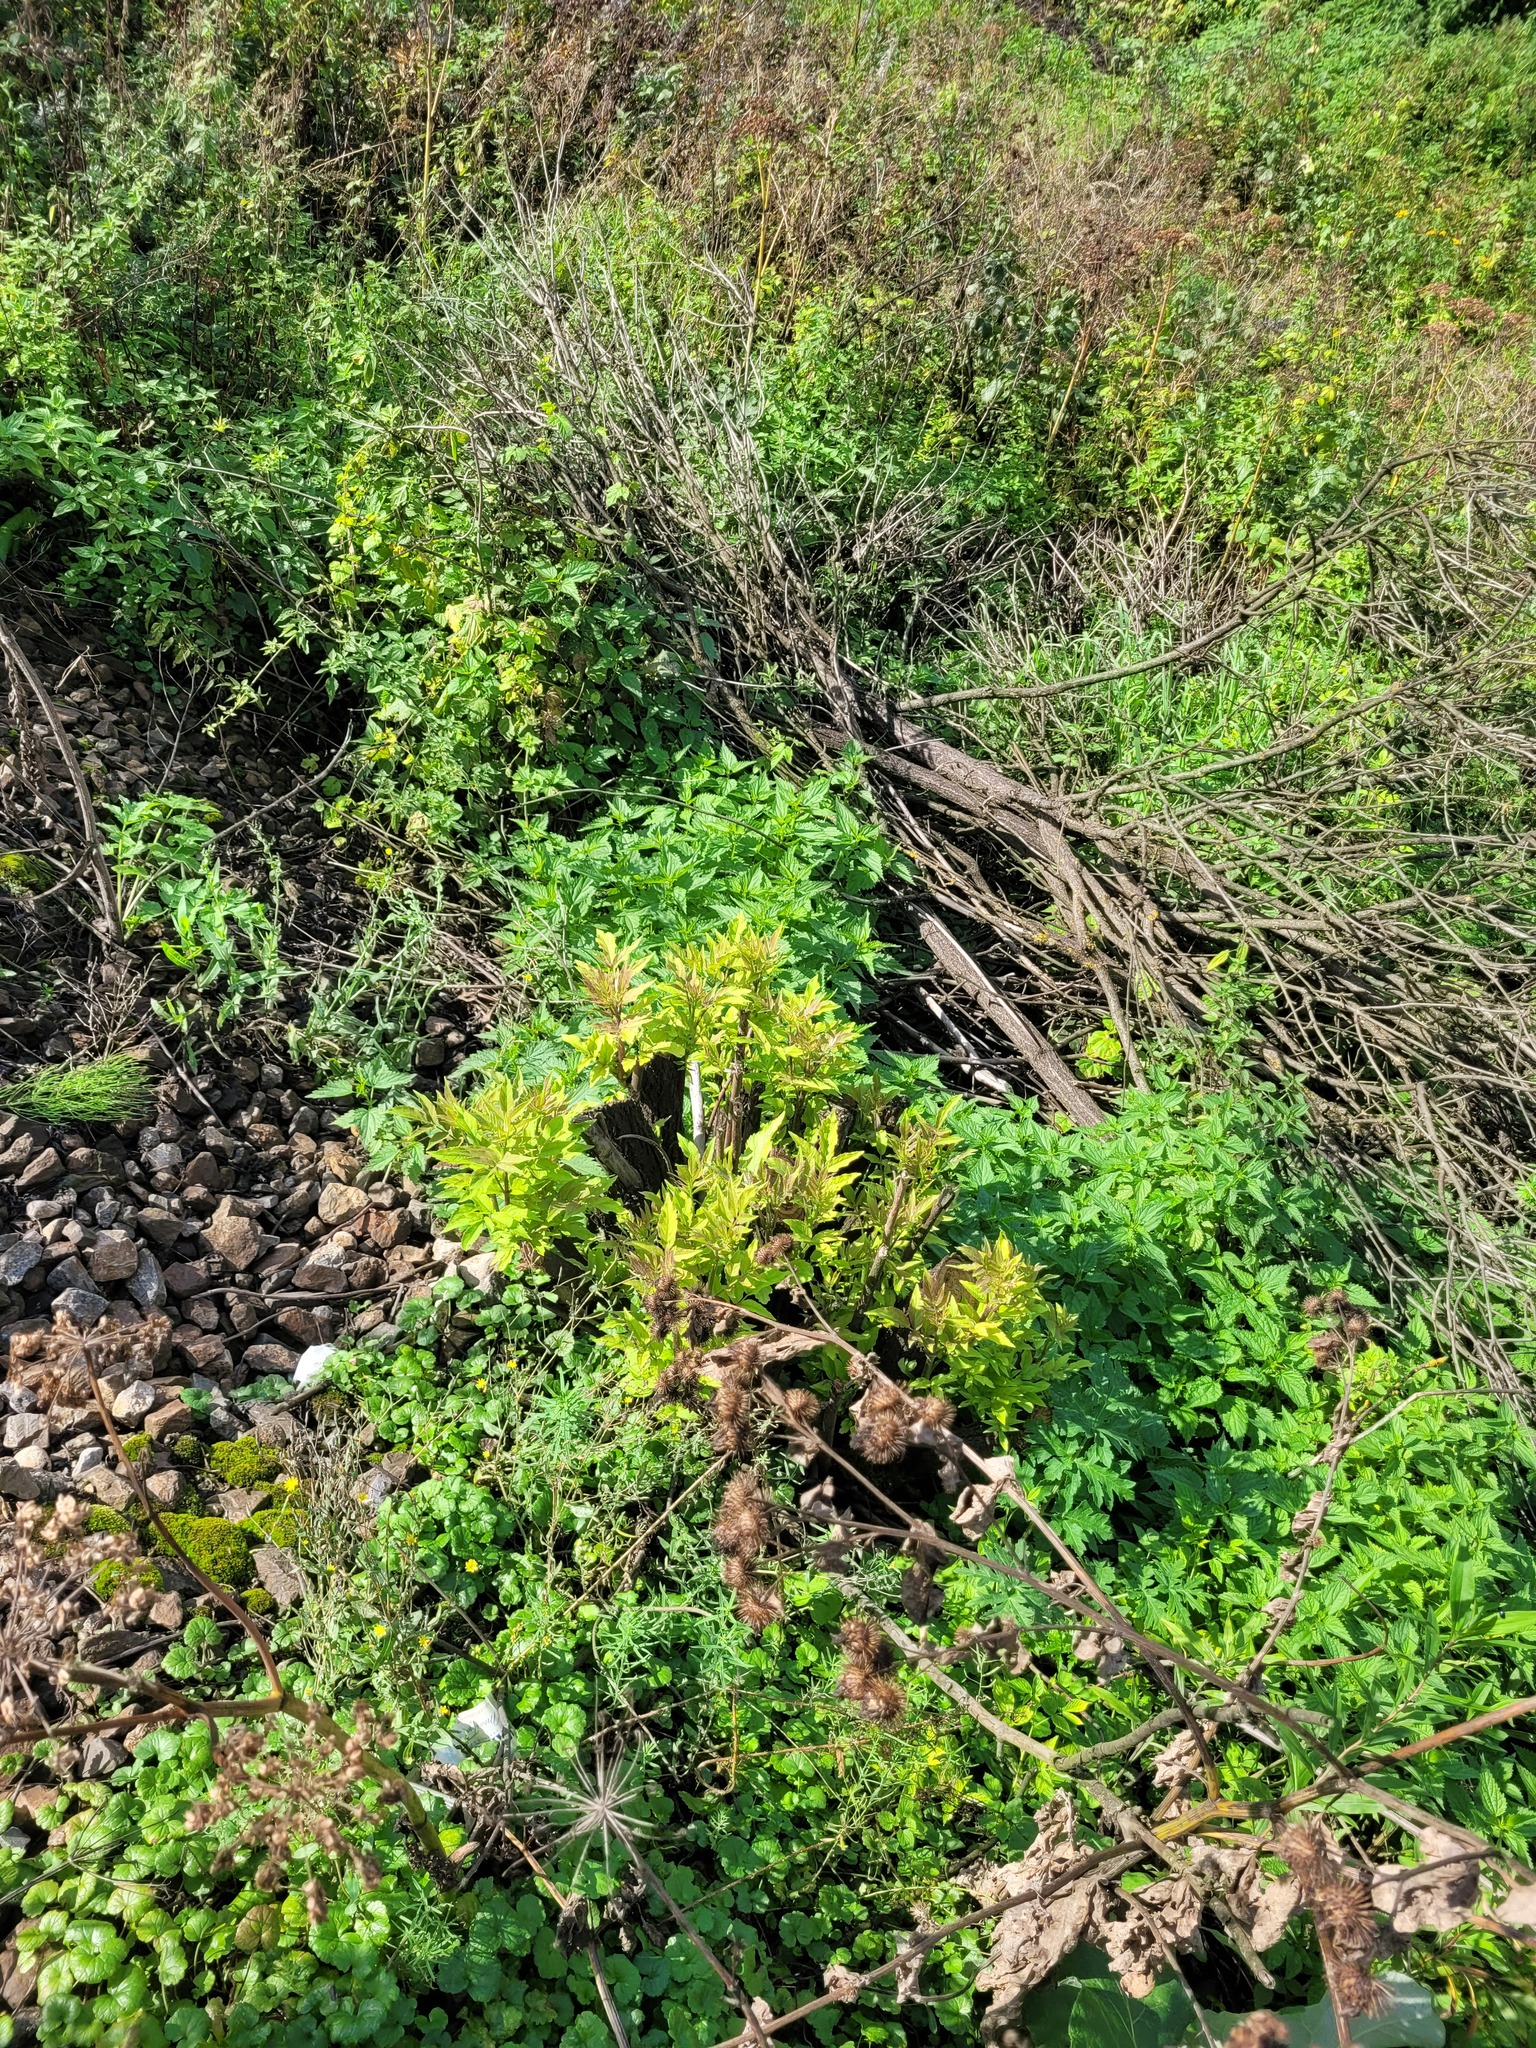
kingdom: Plantae
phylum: Tracheophyta
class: Magnoliopsida
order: Dipsacales
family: Viburnaceae
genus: Sambucus
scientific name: Sambucus racemosa
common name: Red-berried elder
